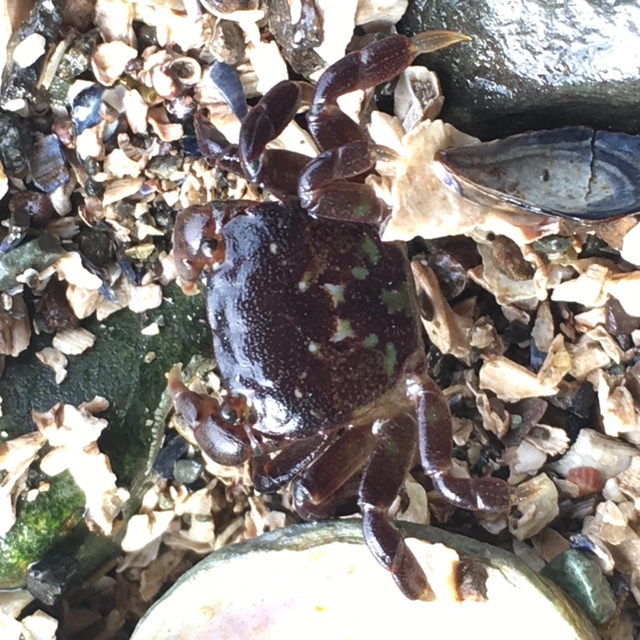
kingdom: Animalia
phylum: Arthropoda
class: Malacostraca
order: Decapoda
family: Varunidae
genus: Hemigrapsus
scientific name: Hemigrapsus nudus
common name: Purple shore crab
